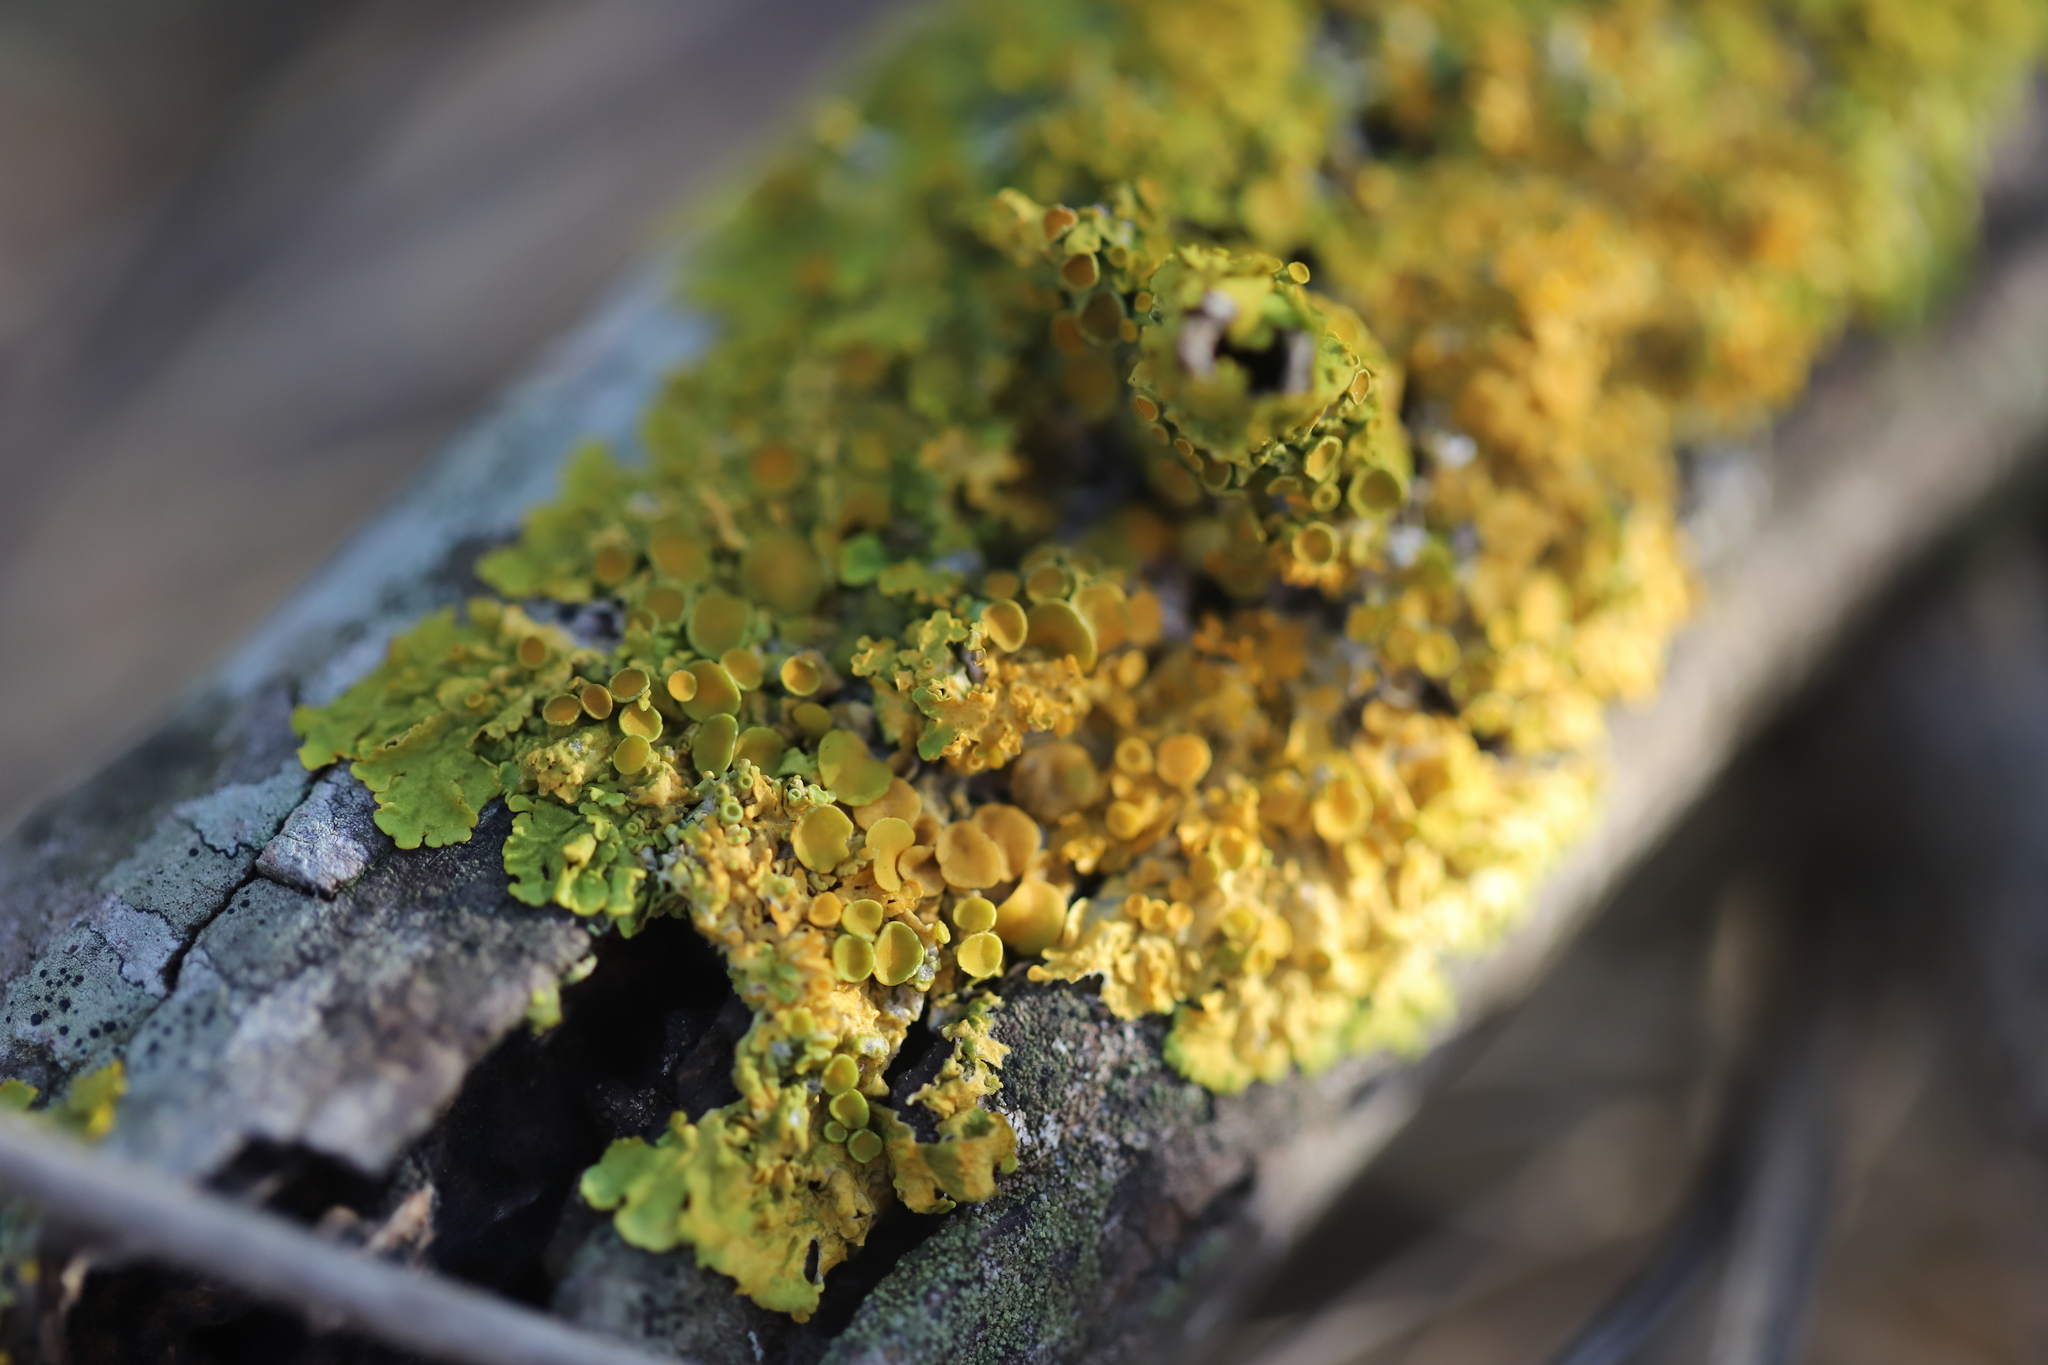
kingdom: Fungi
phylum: Ascomycota
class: Lecanoromycetes
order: Teloschistales
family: Teloschistaceae
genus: Xanthoria
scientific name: Xanthoria parietina
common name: Common orange lichen
